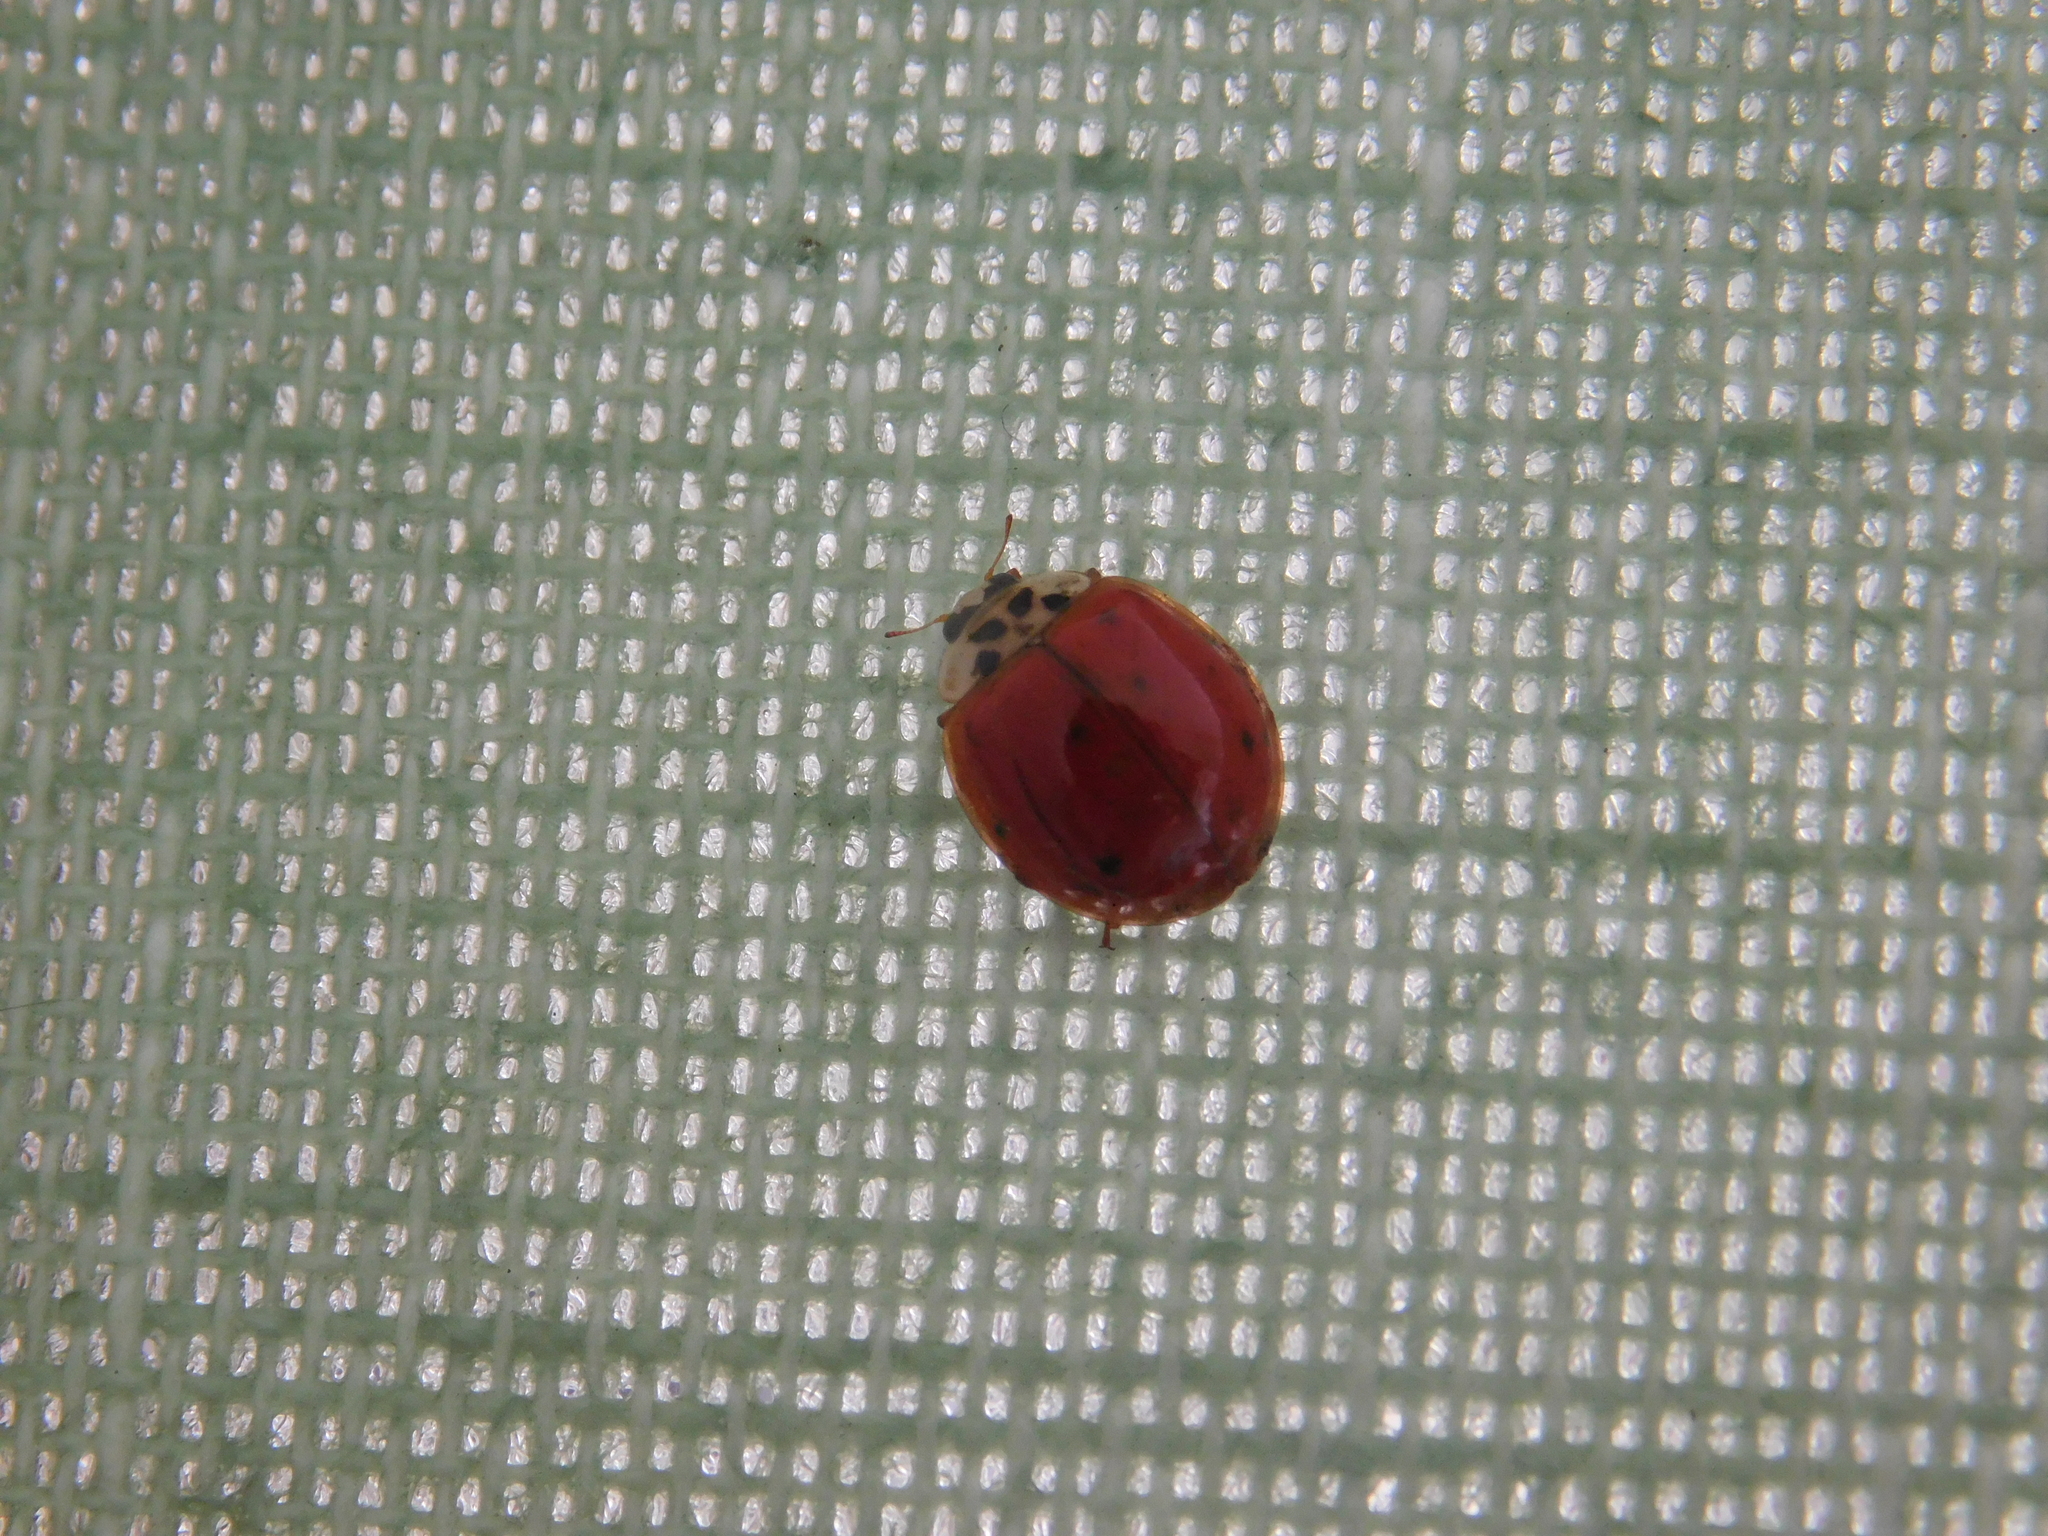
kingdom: Animalia
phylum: Arthropoda
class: Insecta
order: Coleoptera
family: Coccinellidae
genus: Harmonia
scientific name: Harmonia axyridis
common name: Harlequin ladybird
